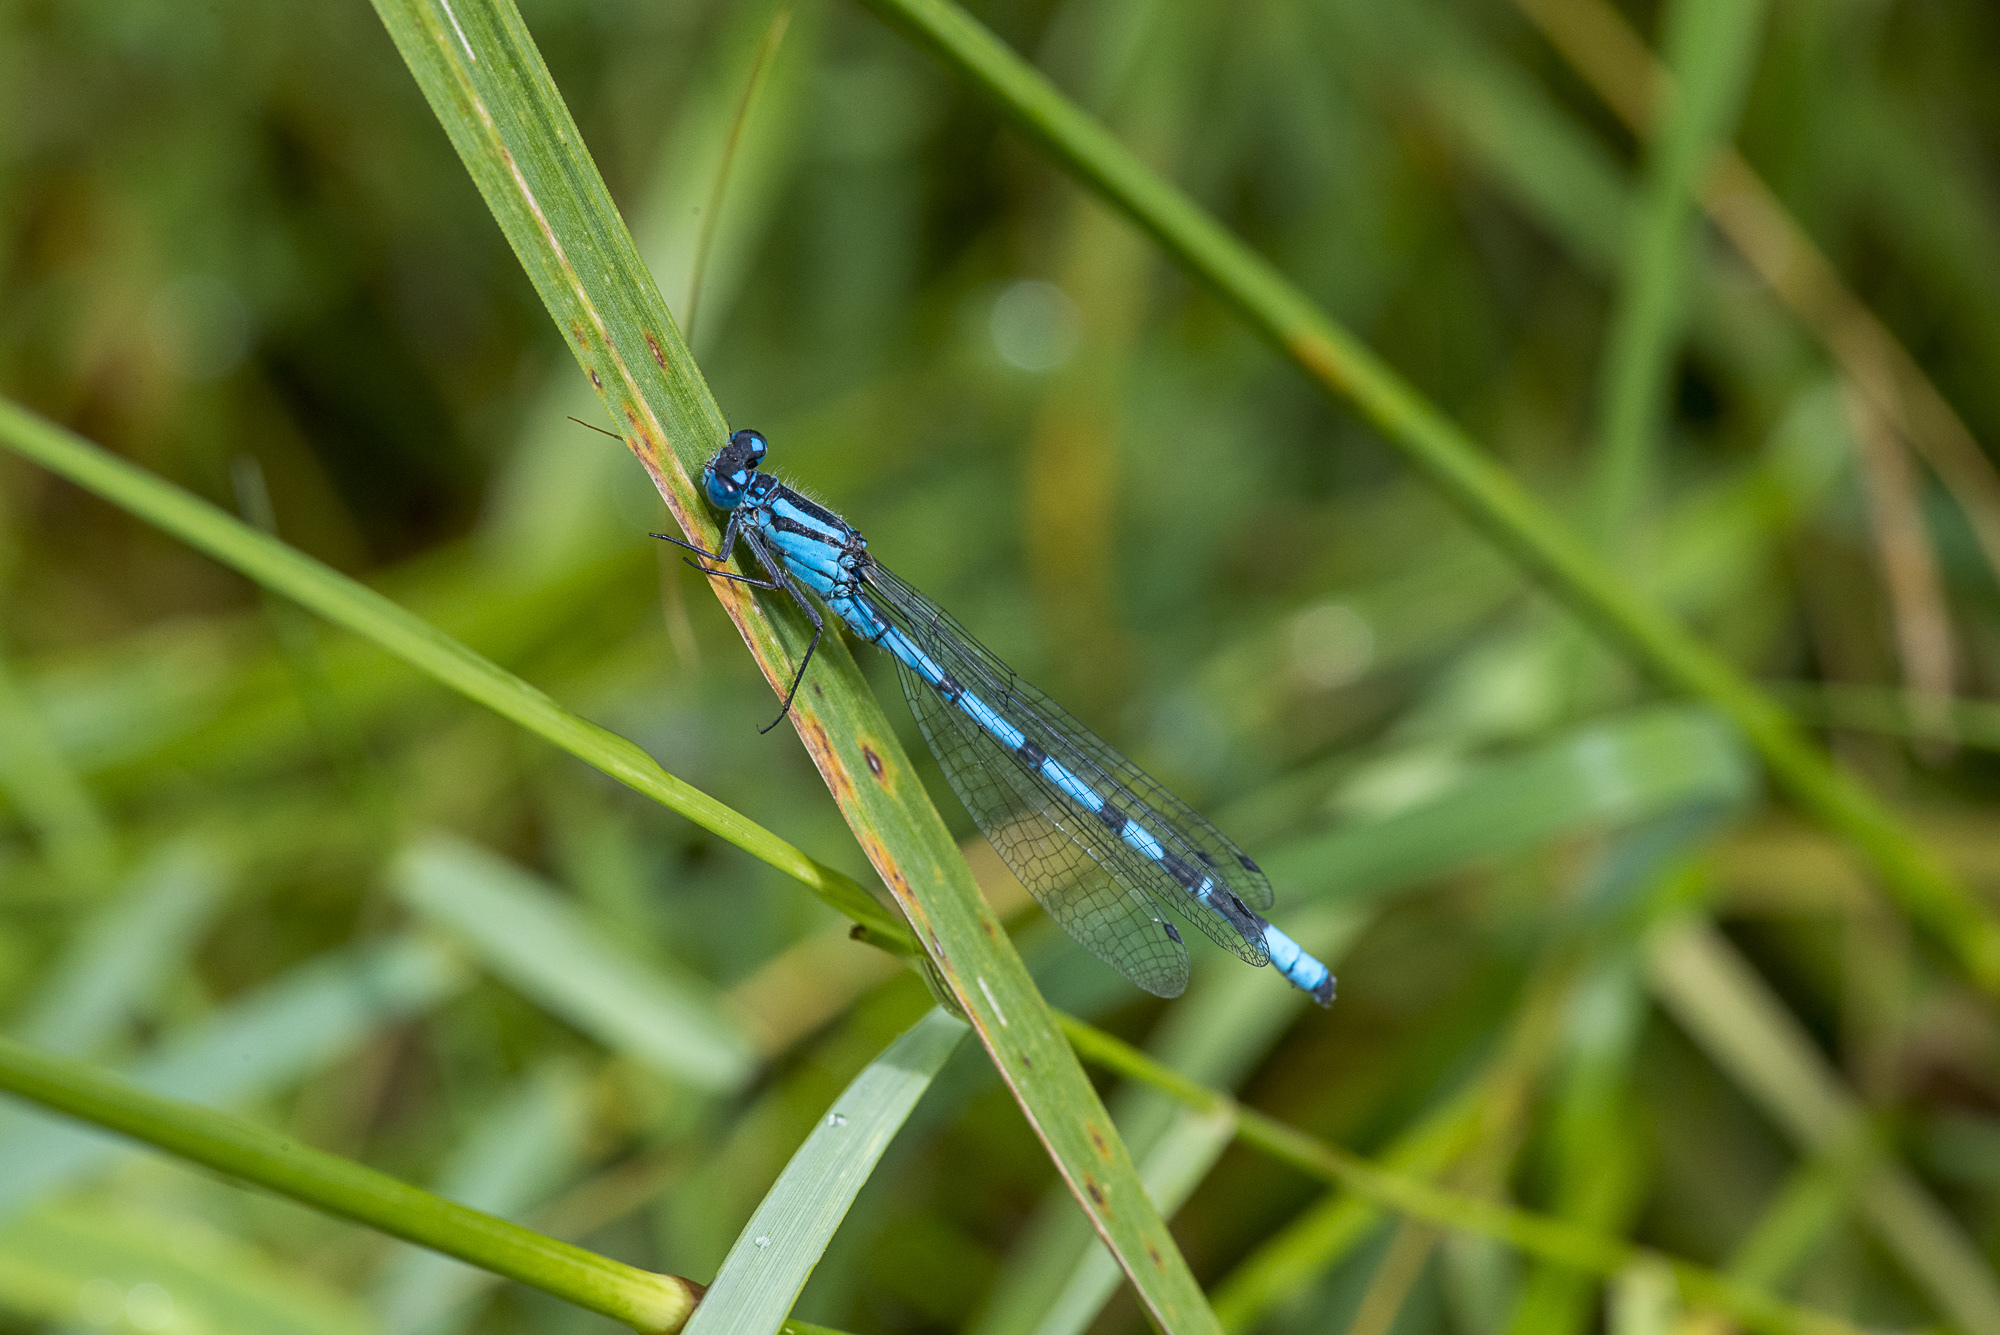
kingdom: Animalia
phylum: Arthropoda
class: Insecta
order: Odonata
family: Coenagrionidae
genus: Enallagma
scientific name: Enallagma cyathigerum
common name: Common blue damselfly
